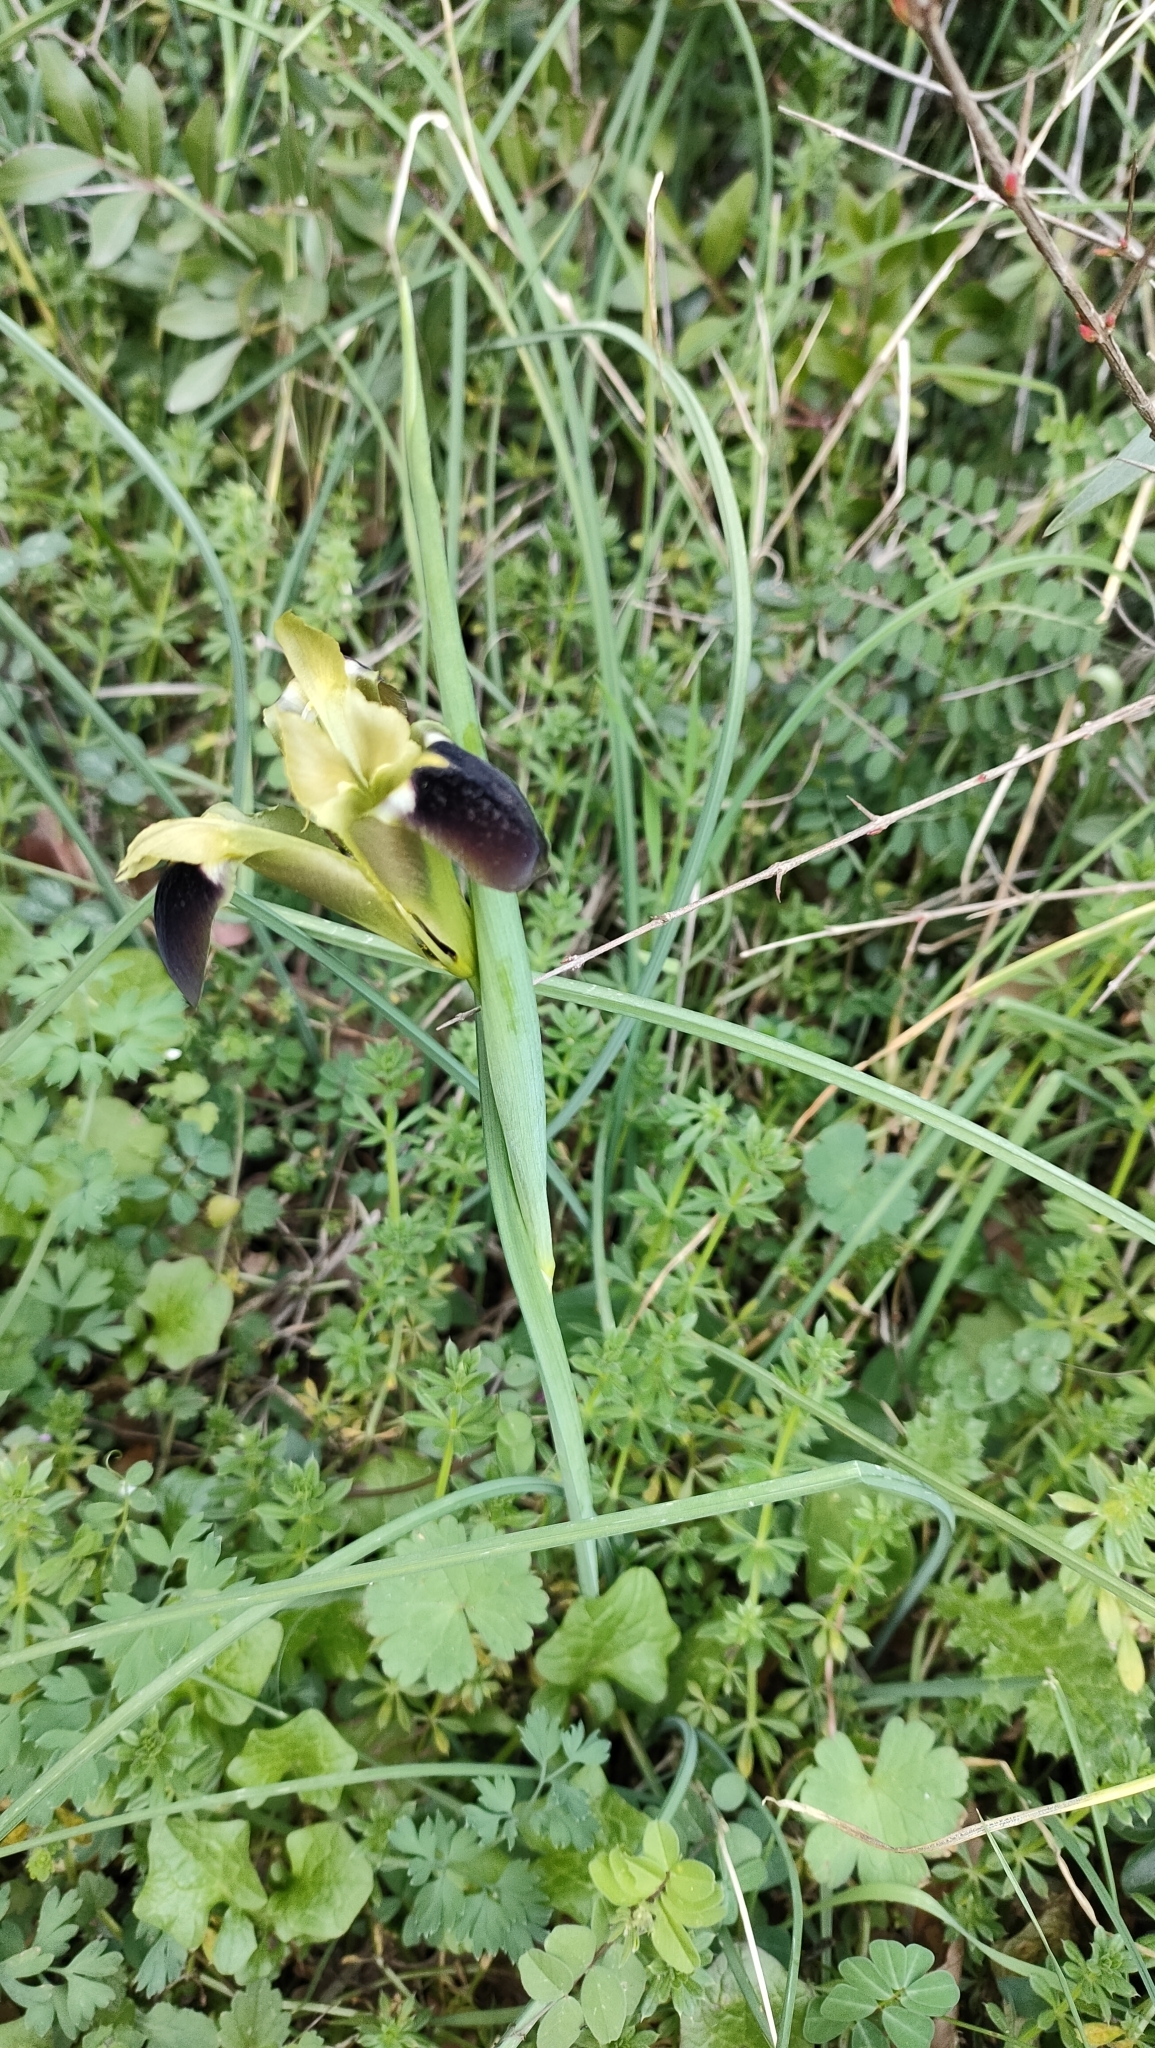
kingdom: Plantae
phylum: Tracheophyta
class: Liliopsida
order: Asparagales
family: Iridaceae
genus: Iris
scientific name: Iris tuberosa
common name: Snake's-head iris
